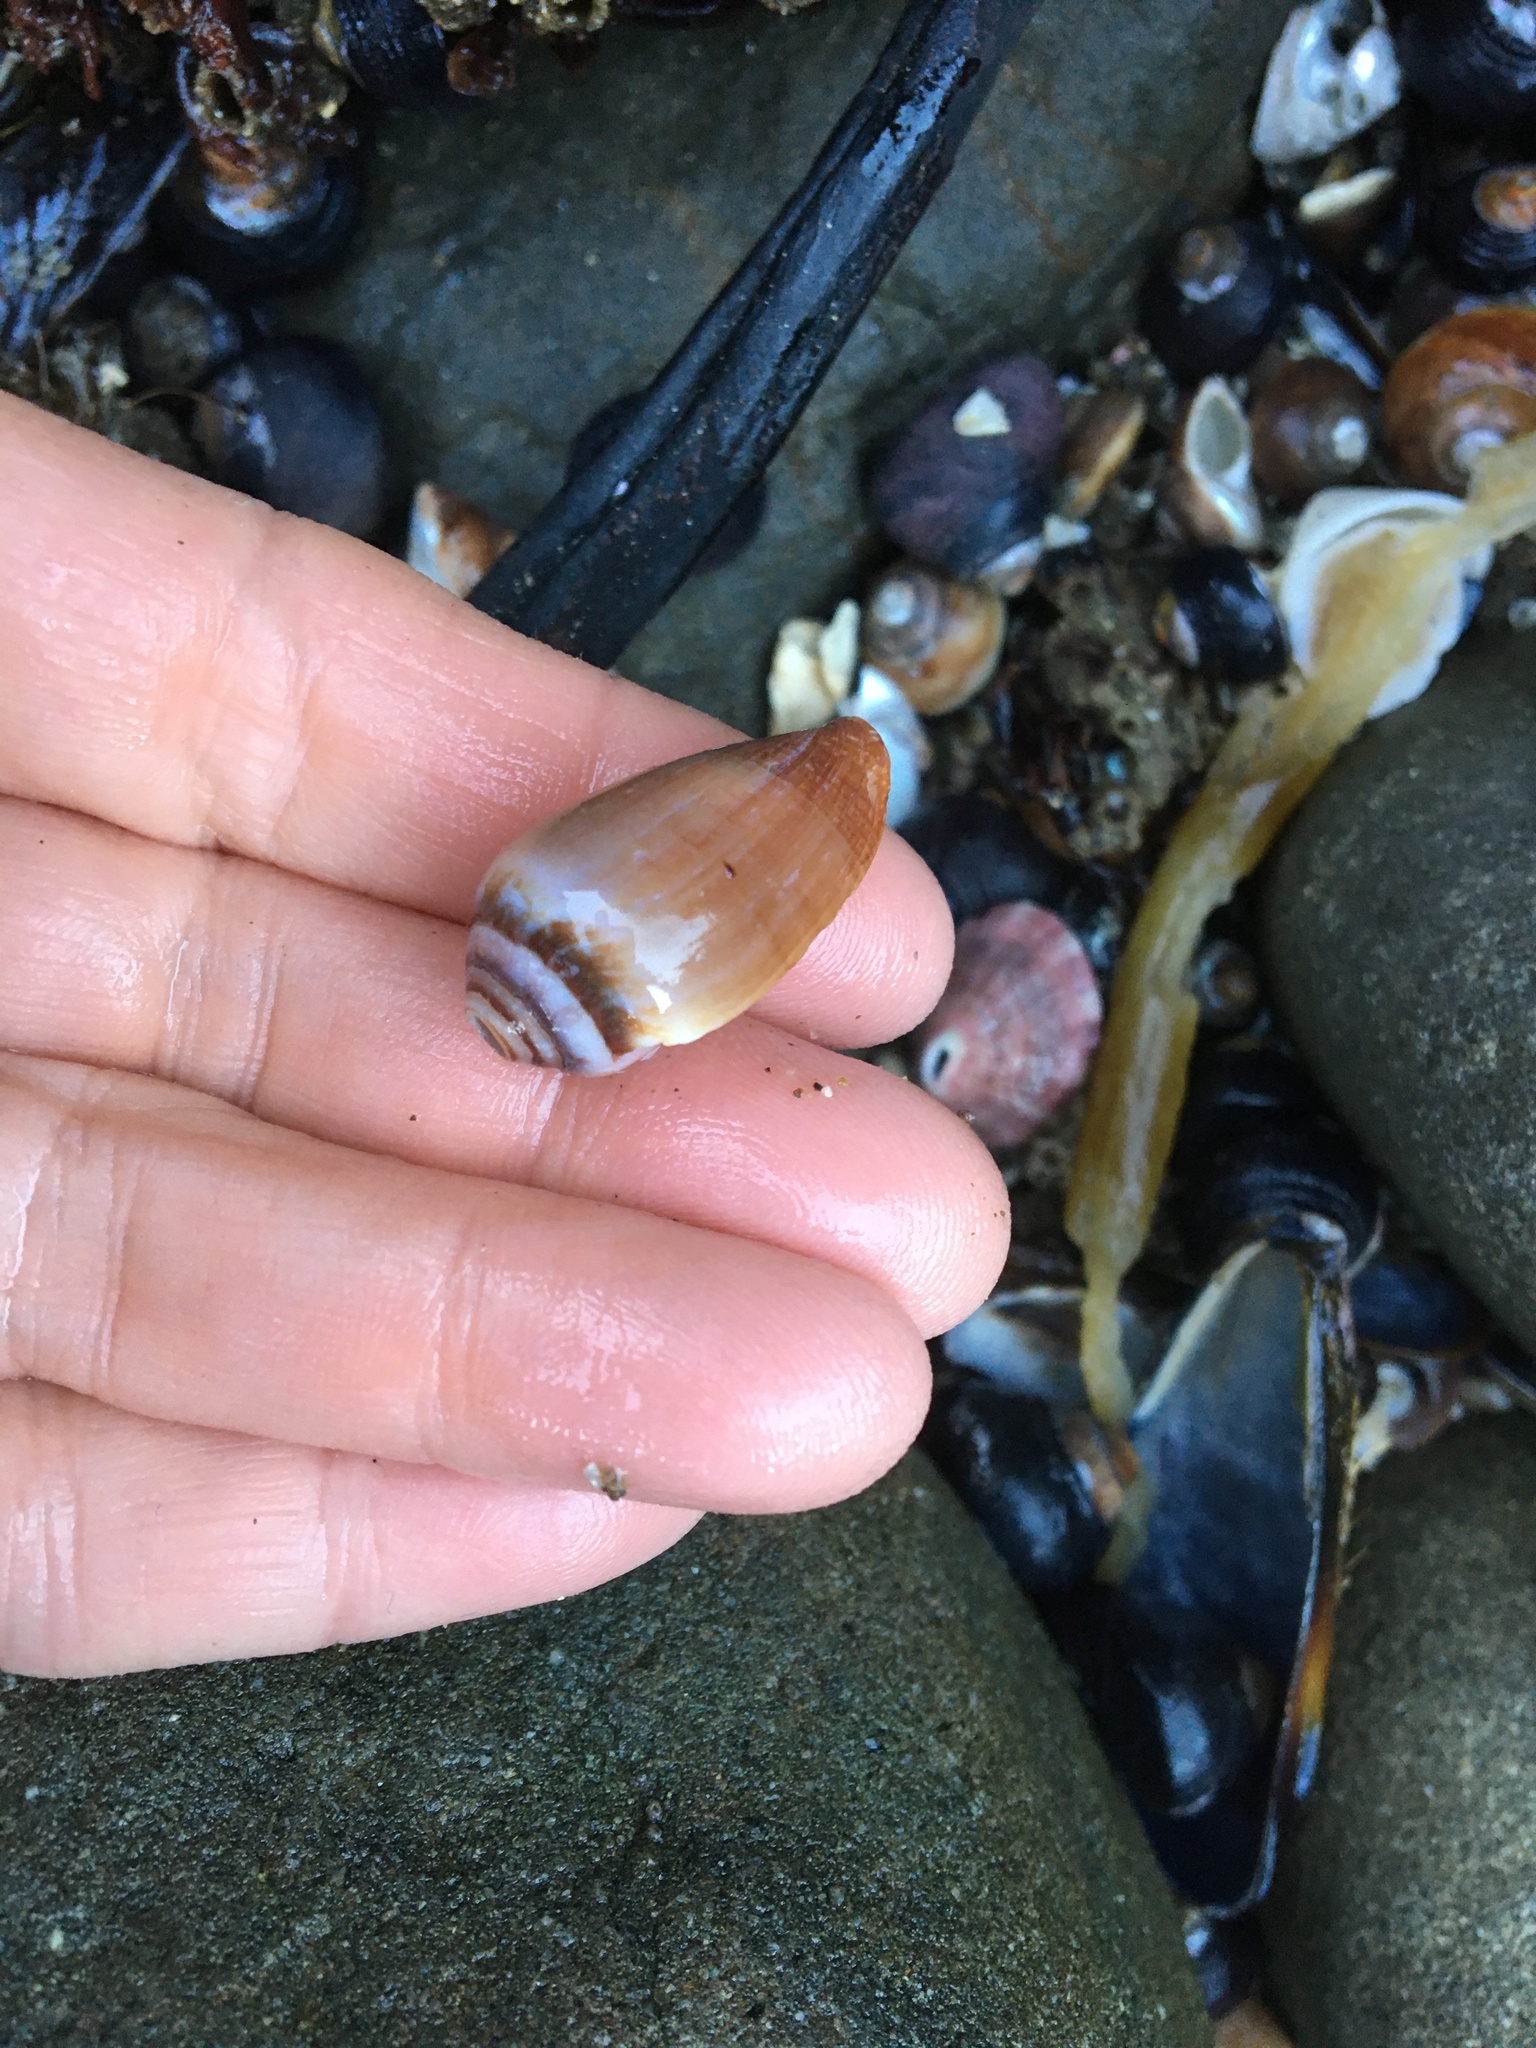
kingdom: Animalia
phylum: Mollusca
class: Gastropoda
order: Neogastropoda
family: Conidae
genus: Californiconus
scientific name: Californiconus californicus
